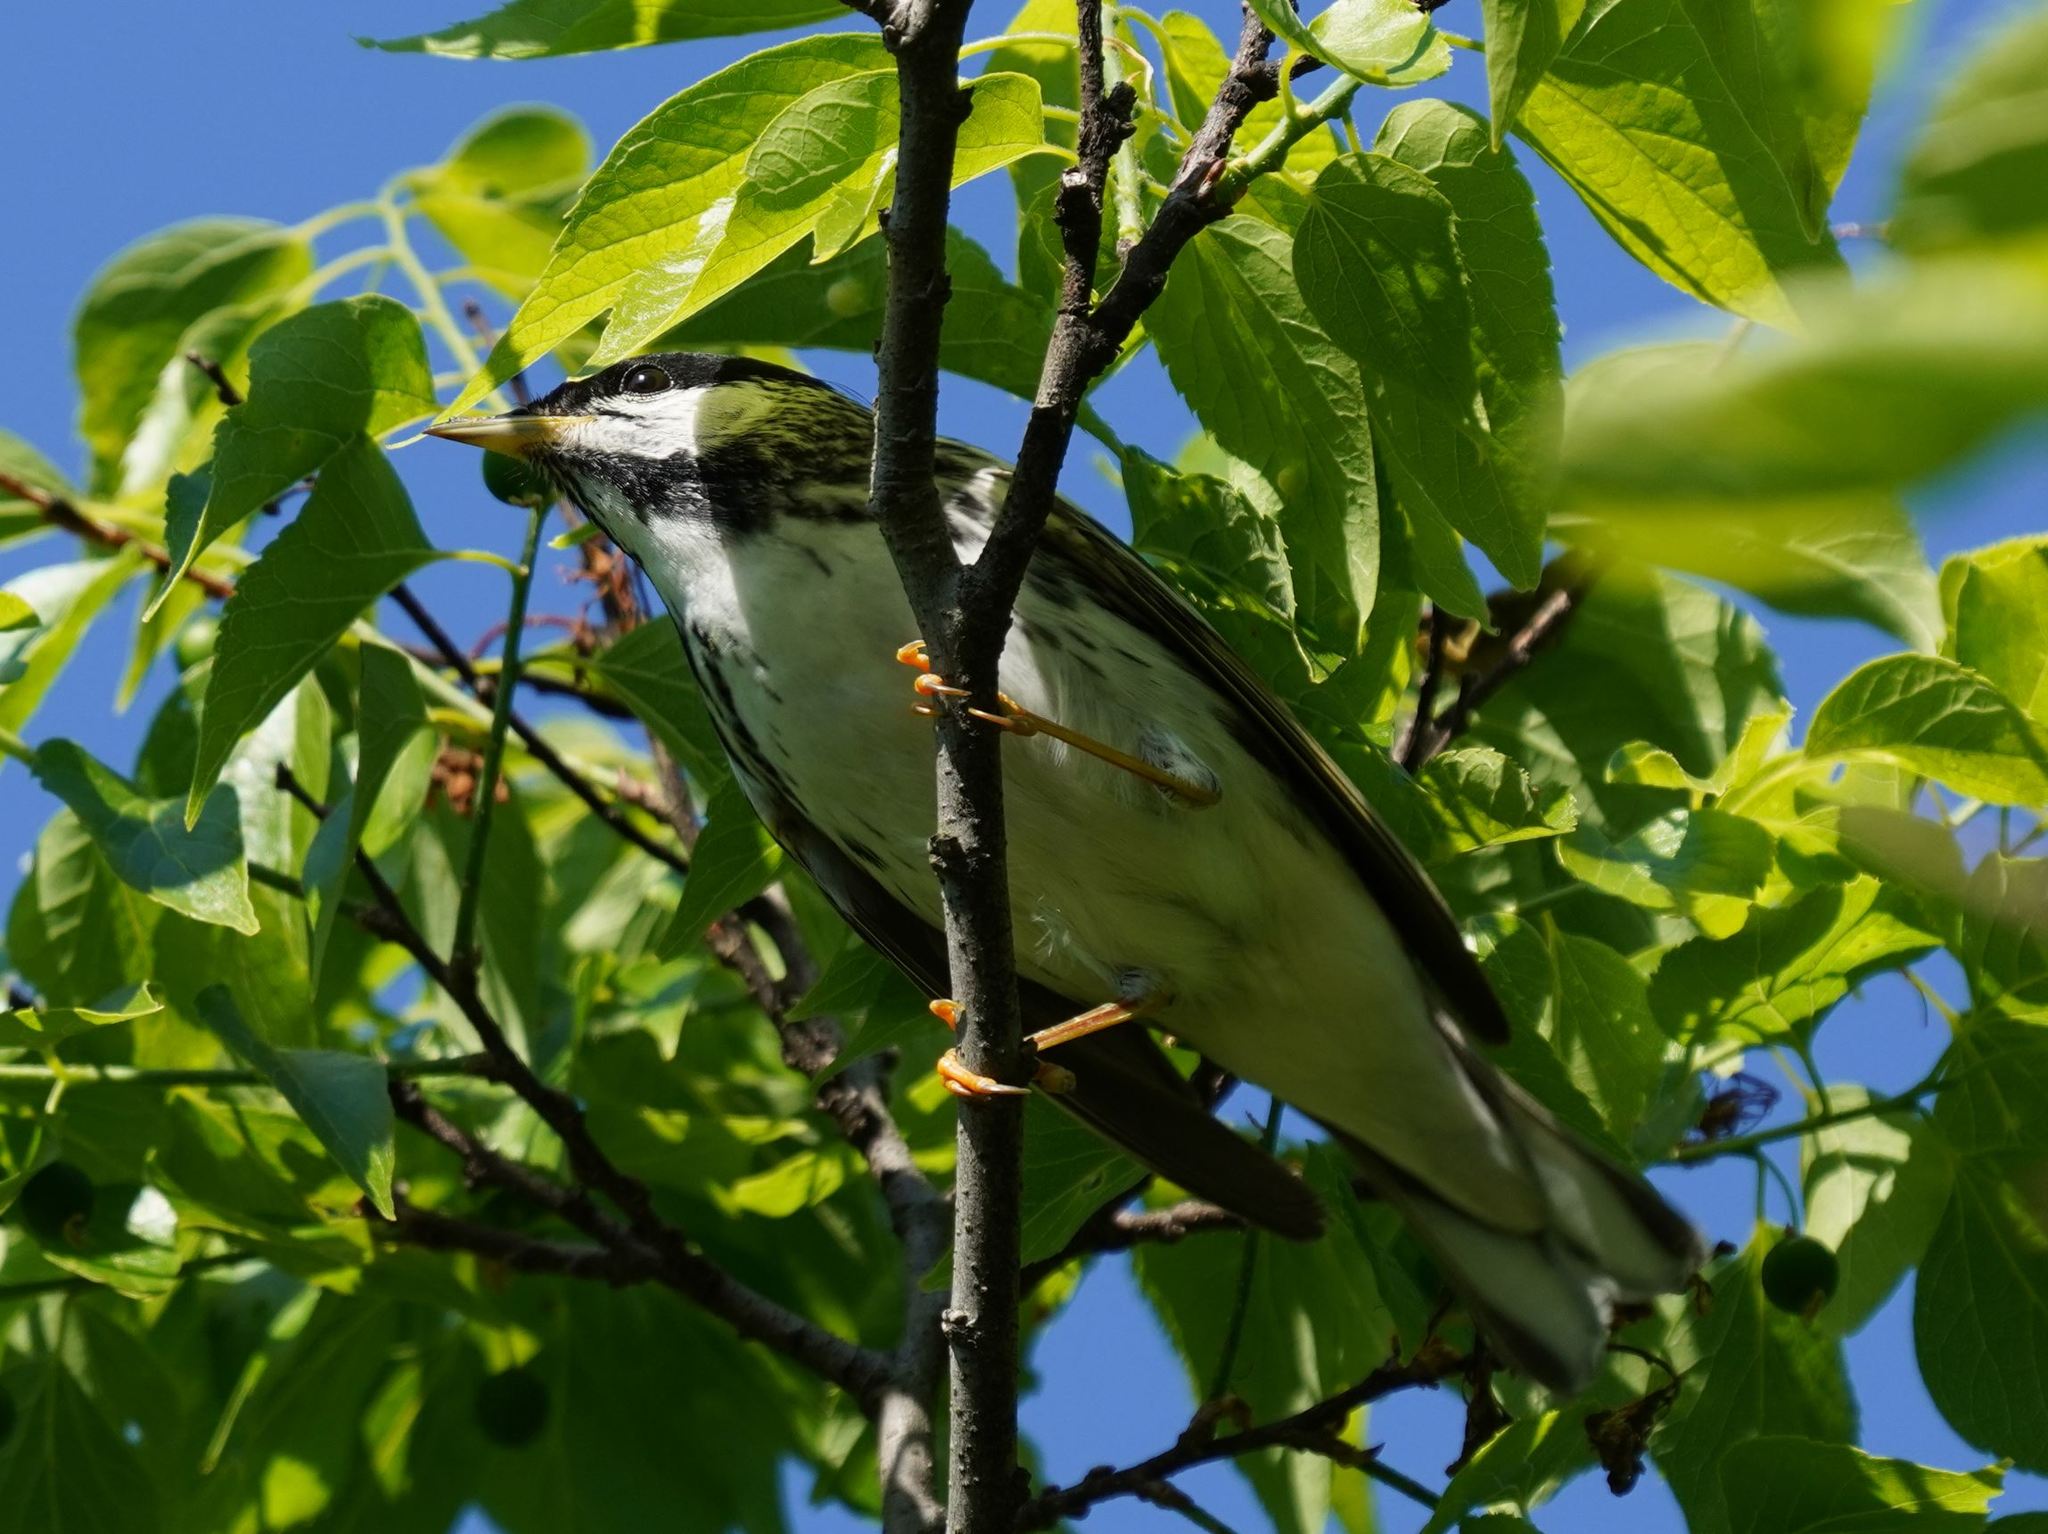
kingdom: Animalia
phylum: Chordata
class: Aves
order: Passeriformes
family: Parulidae
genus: Setophaga
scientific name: Setophaga striata
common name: Blackpoll warbler
